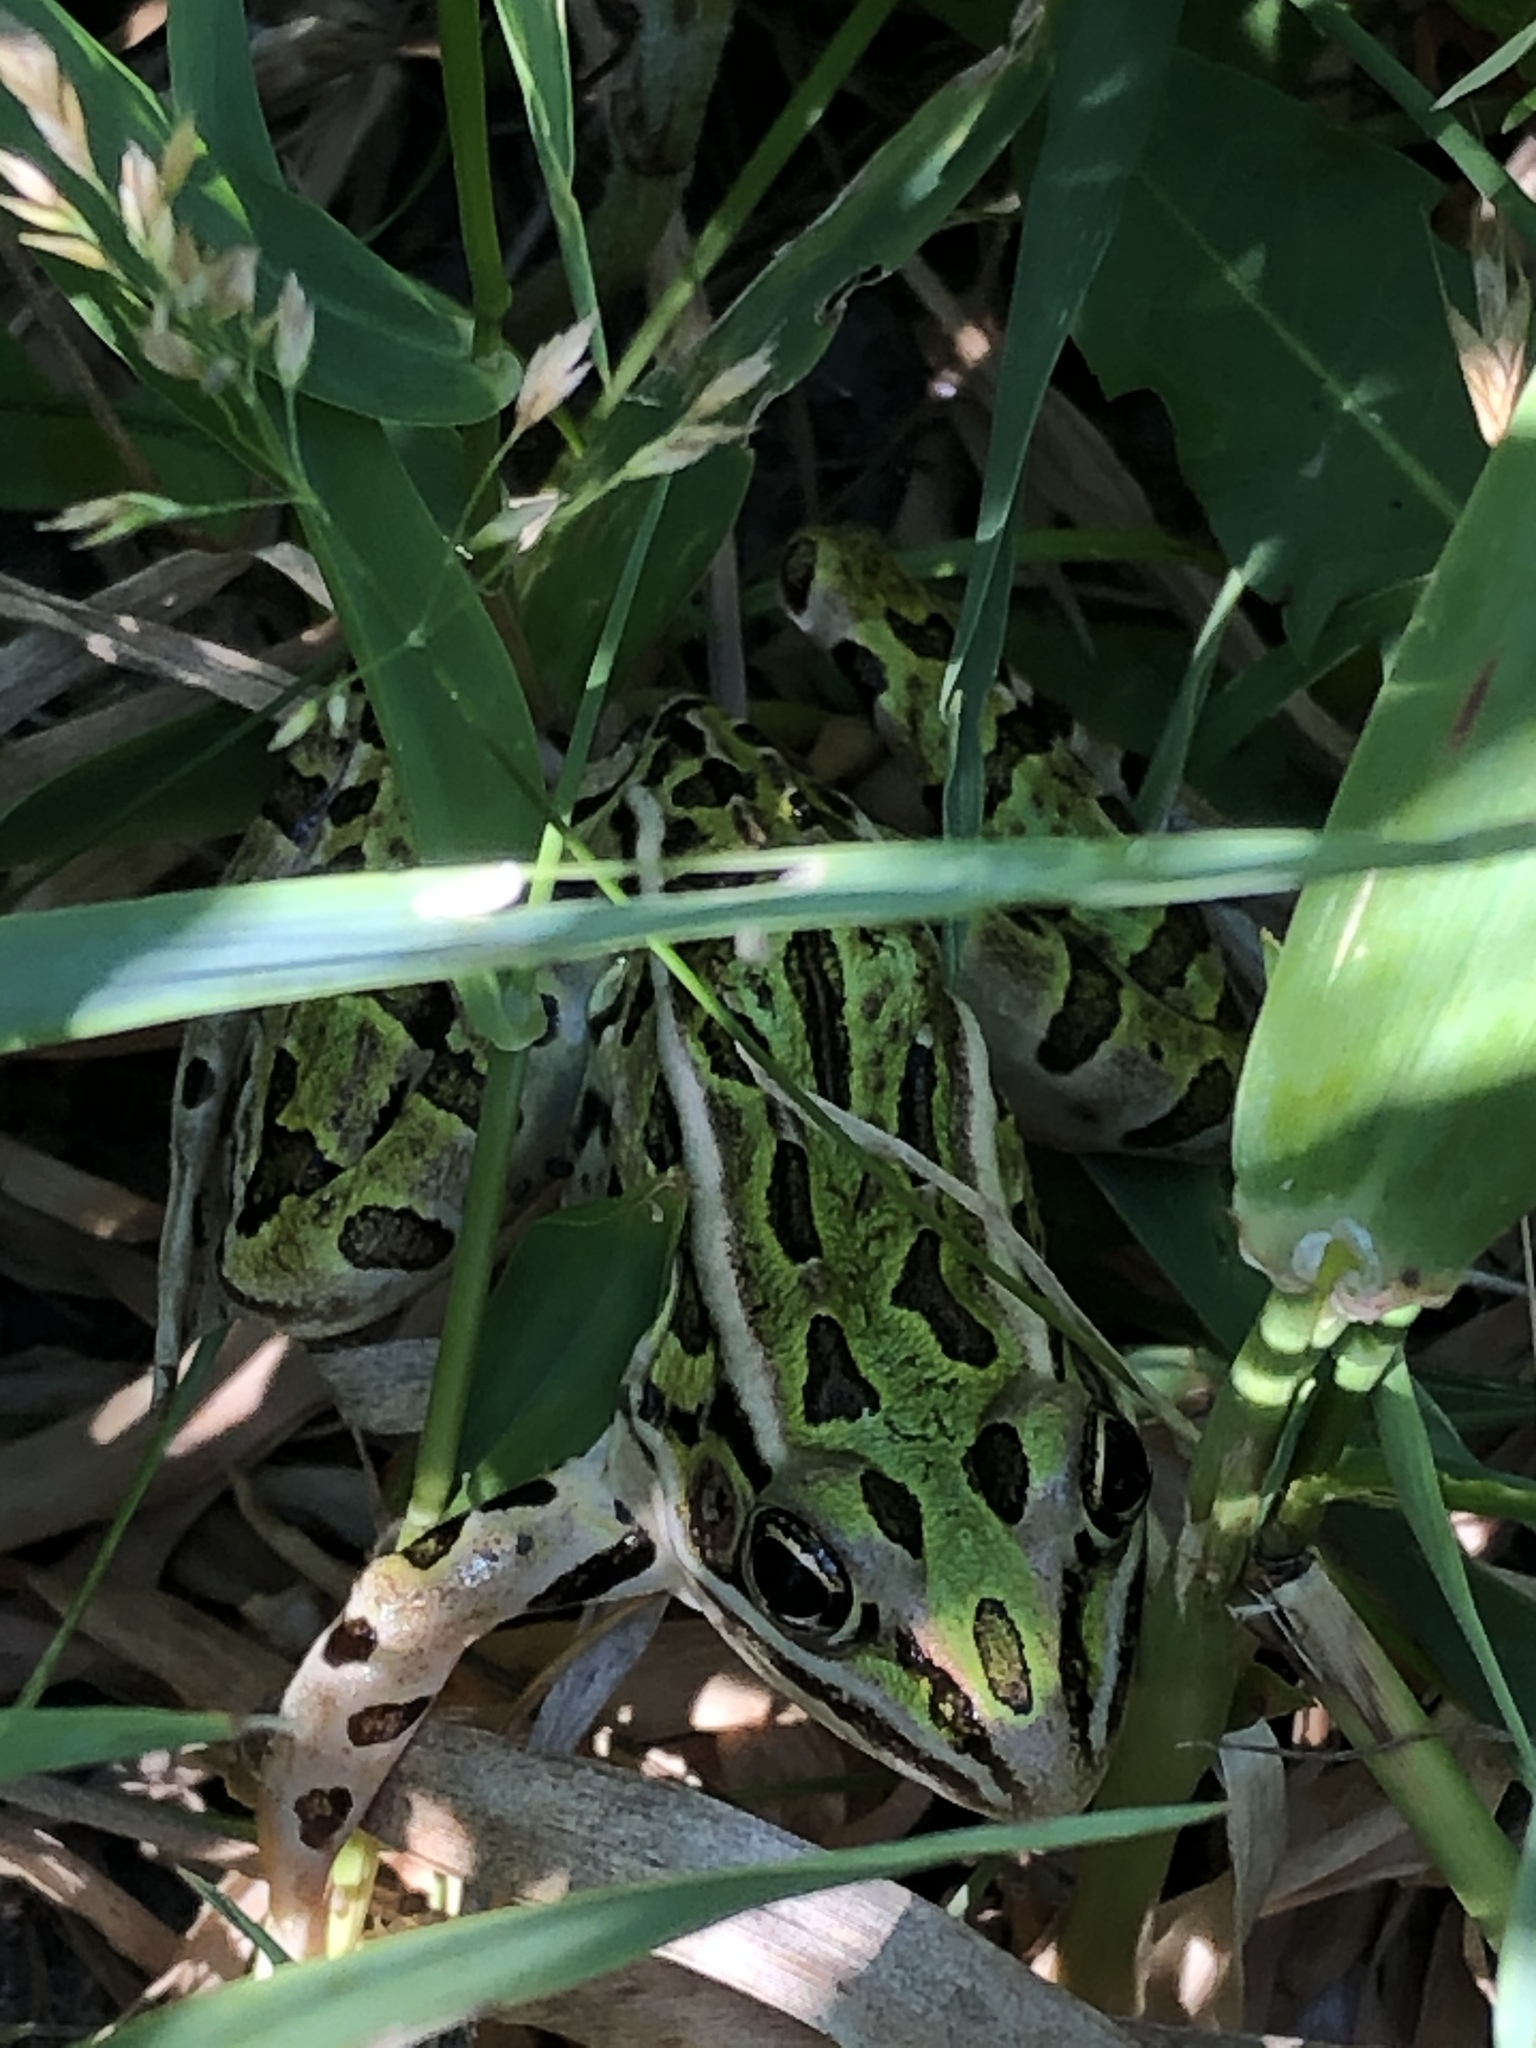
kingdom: Animalia
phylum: Chordata
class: Amphibia
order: Anura
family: Ranidae
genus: Lithobates
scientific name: Lithobates pipiens
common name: Northern leopard frog
